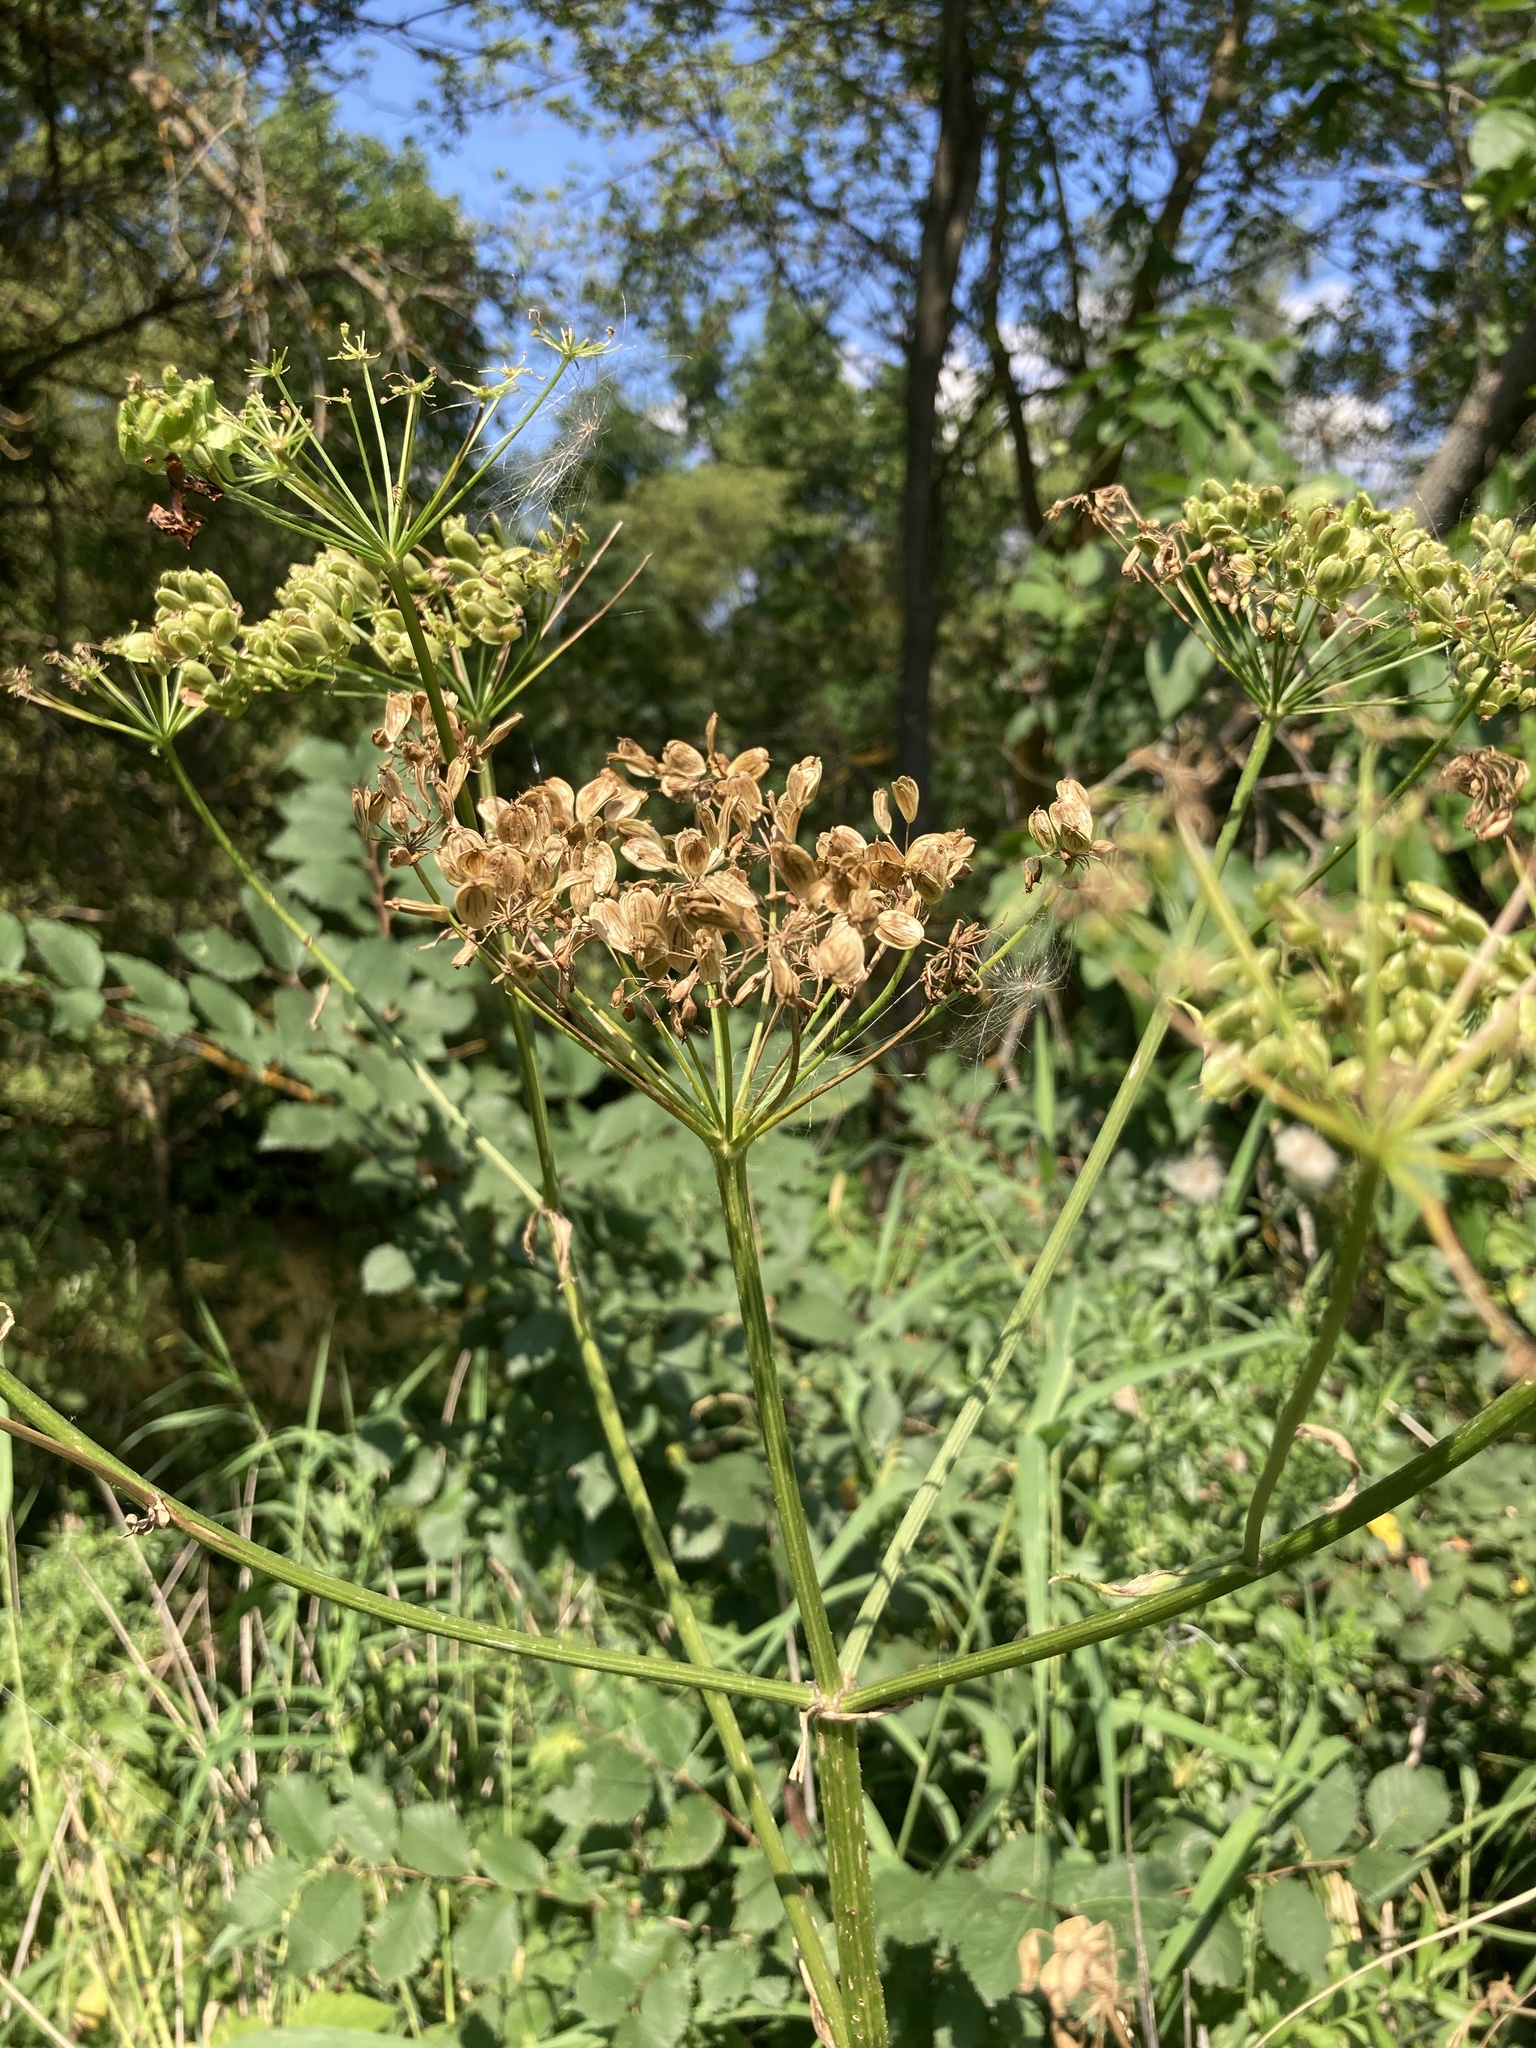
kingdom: Plantae
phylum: Tracheophyta
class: Magnoliopsida
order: Apiales
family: Apiaceae
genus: Heracleum
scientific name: Heracleum sphondylium
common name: Hogweed
